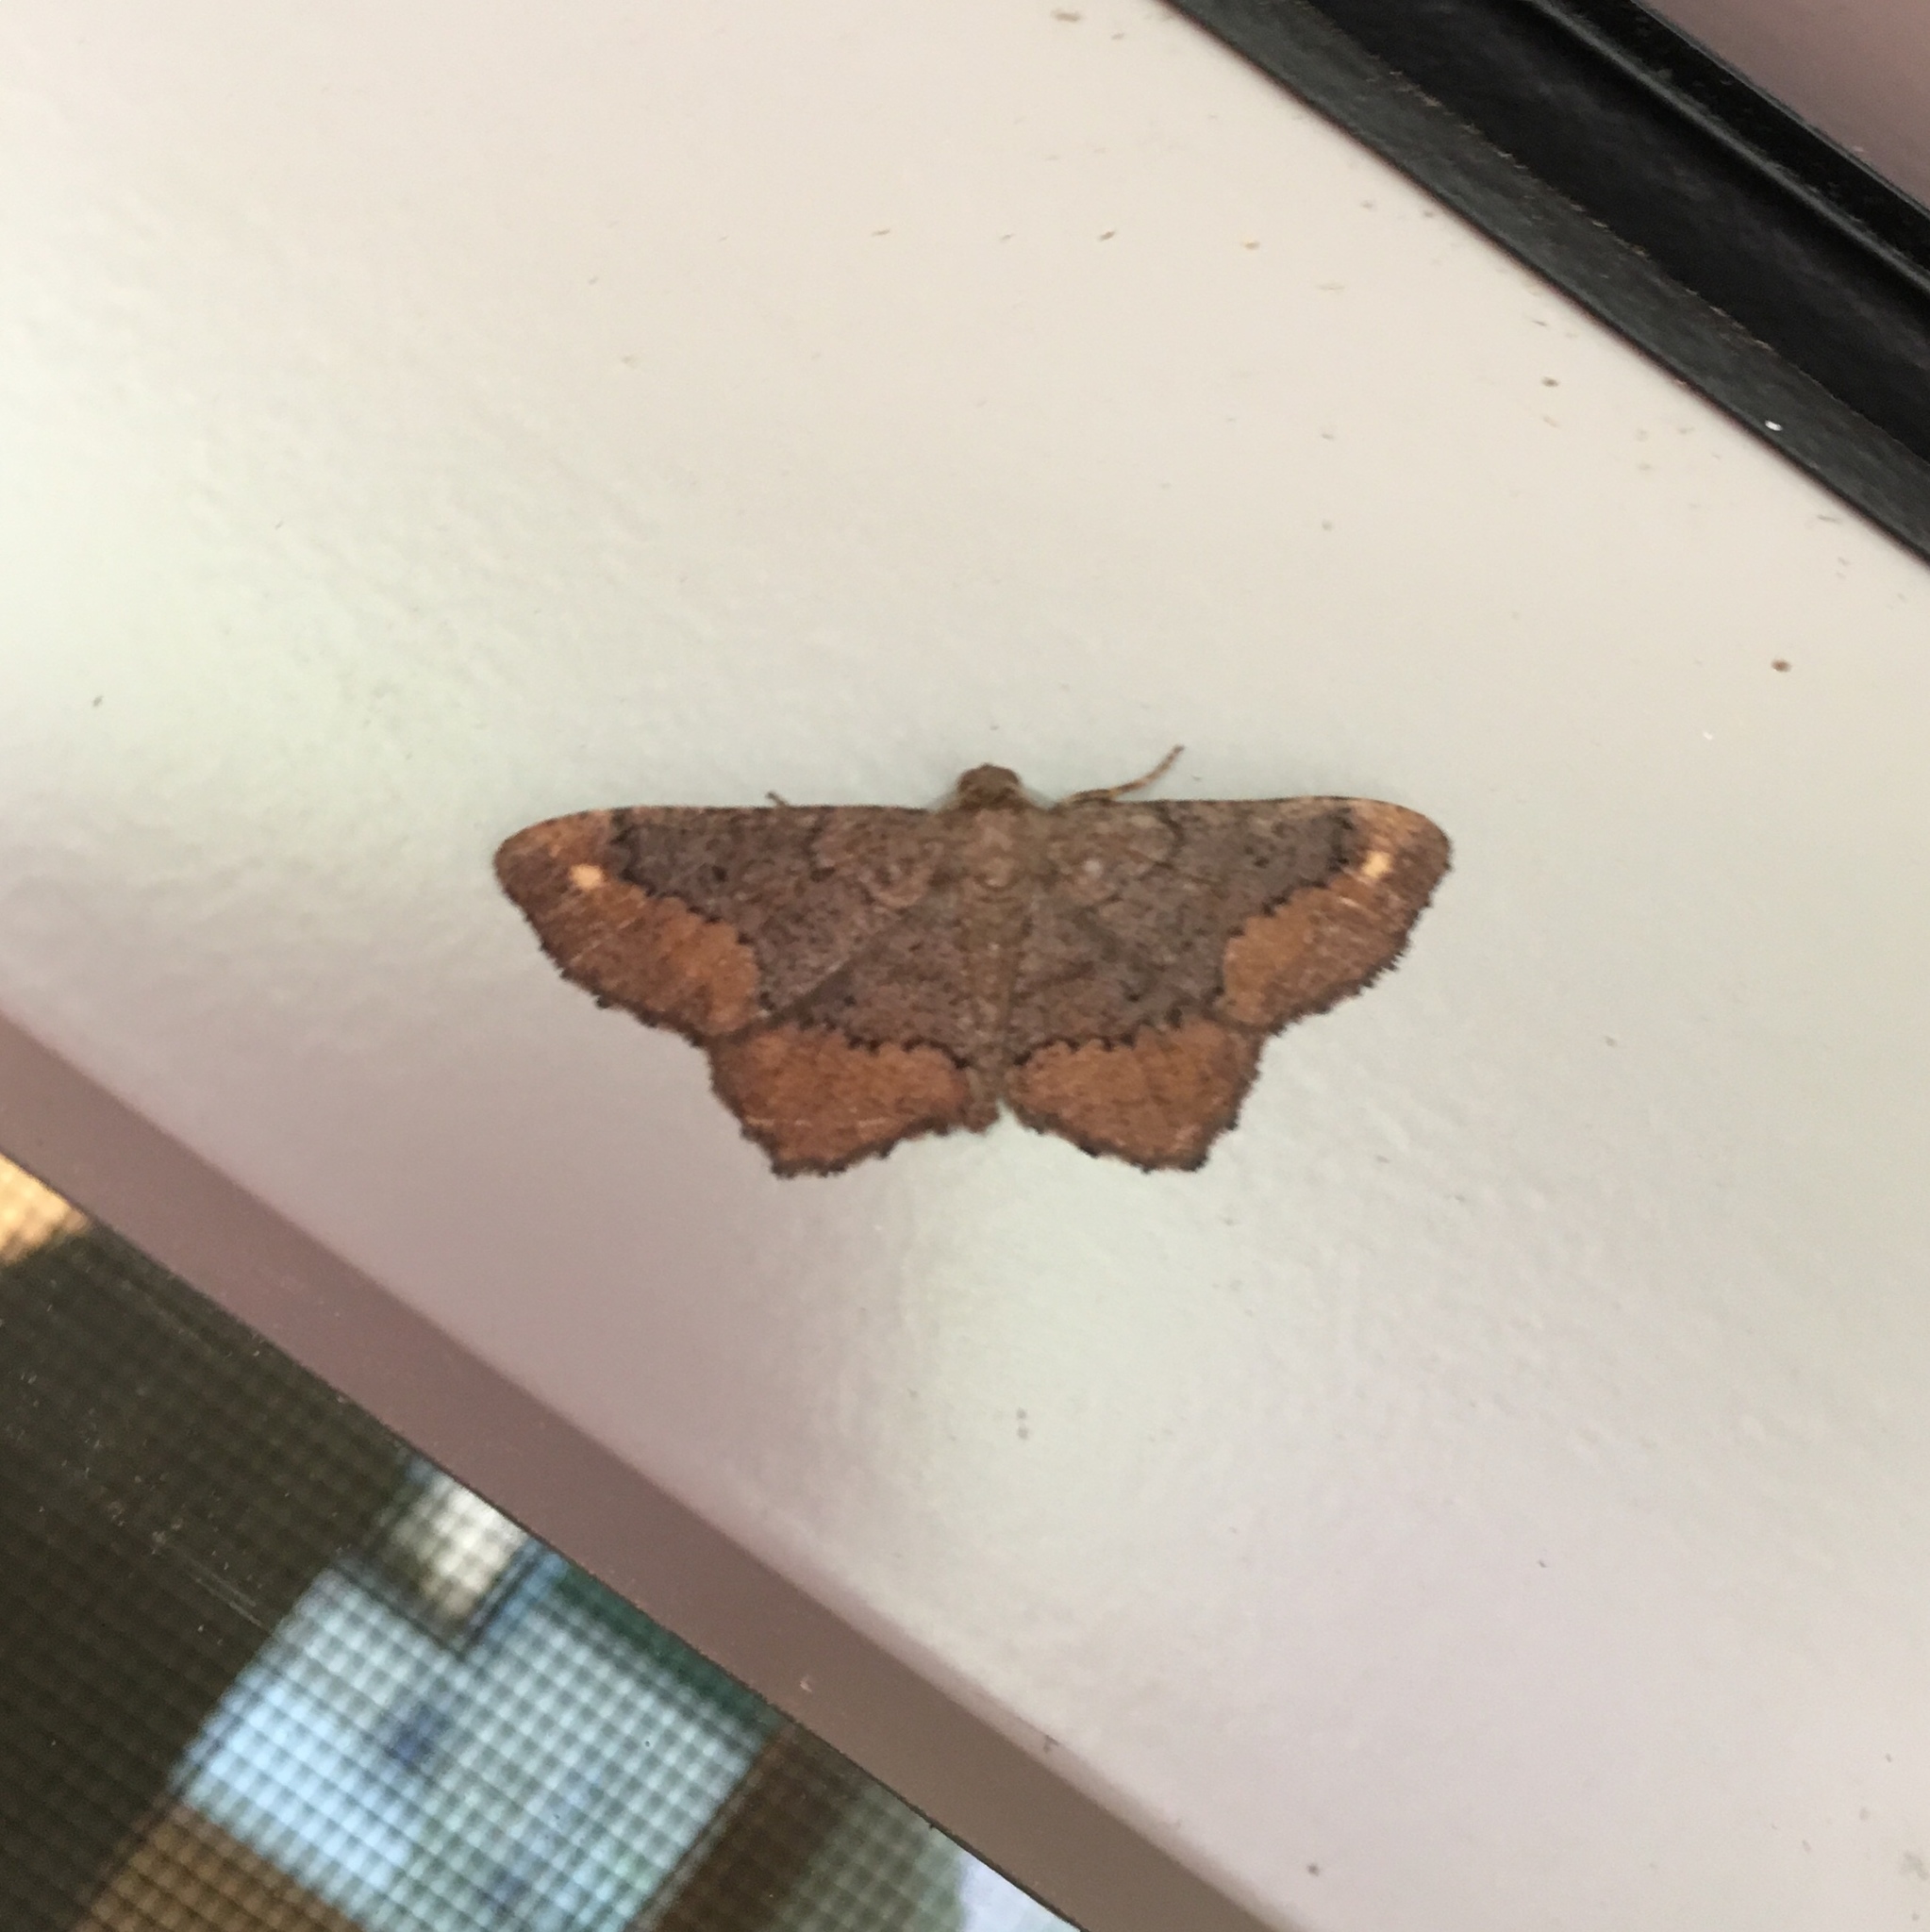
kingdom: Animalia
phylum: Arthropoda
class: Insecta
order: Lepidoptera
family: Geometridae
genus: Hypagyrtis
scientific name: Hypagyrtis esther
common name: Esther moth
